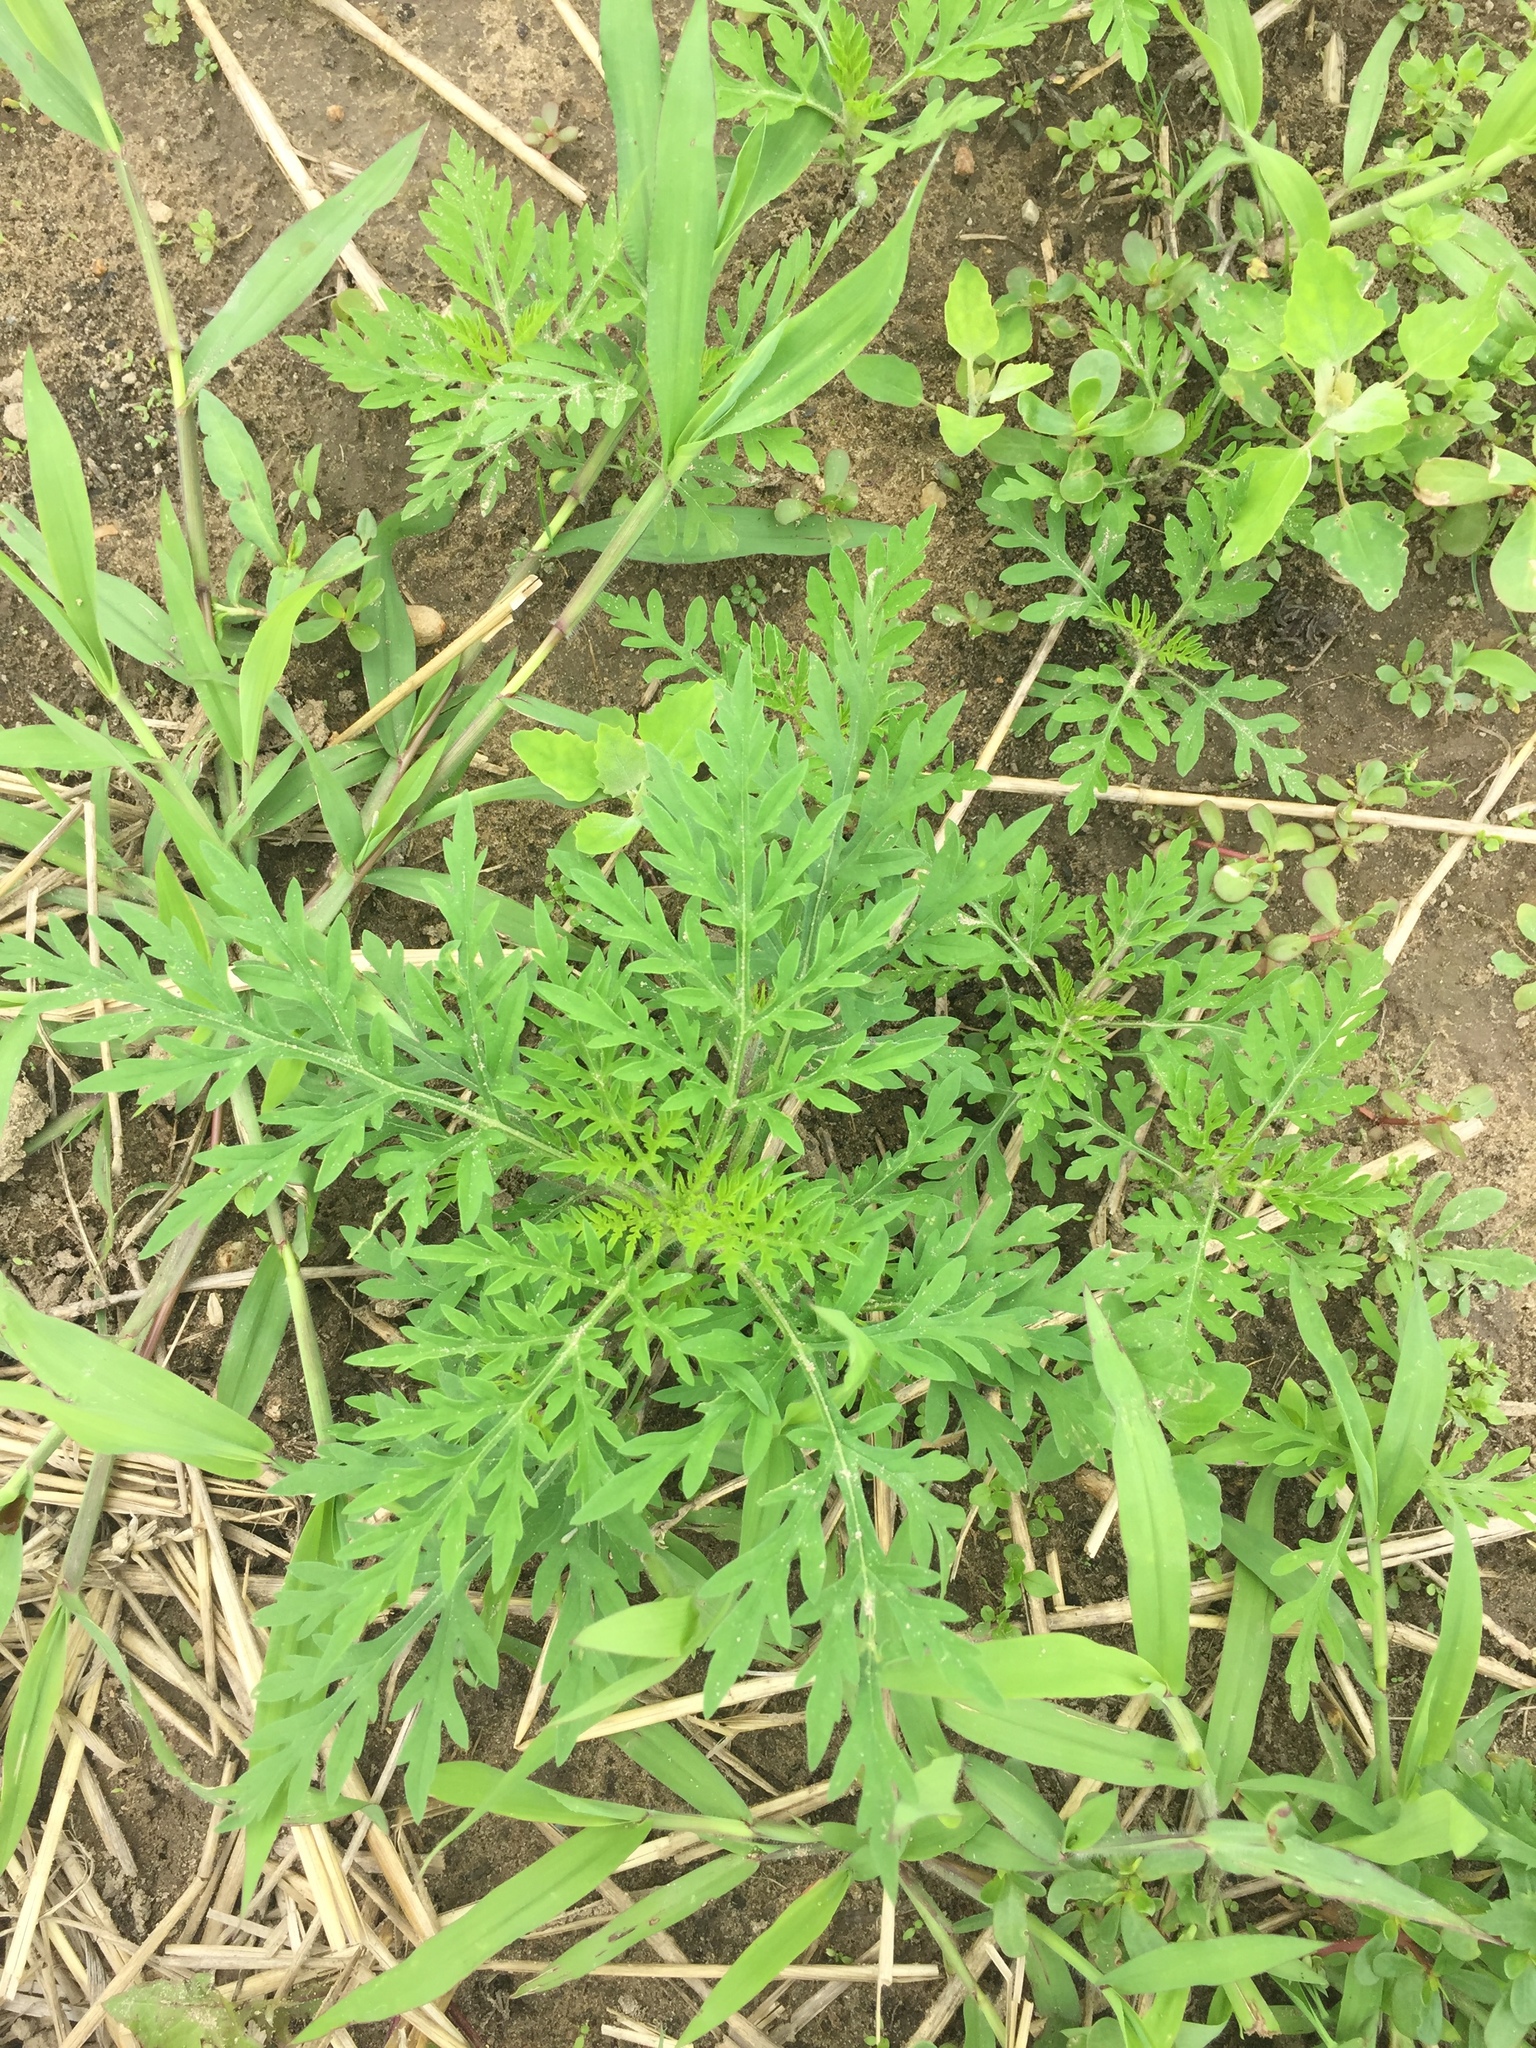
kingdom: Plantae
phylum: Tracheophyta
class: Magnoliopsida
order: Asterales
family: Asteraceae
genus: Ambrosia
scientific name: Ambrosia artemisiifolia
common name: Annual ragweed
